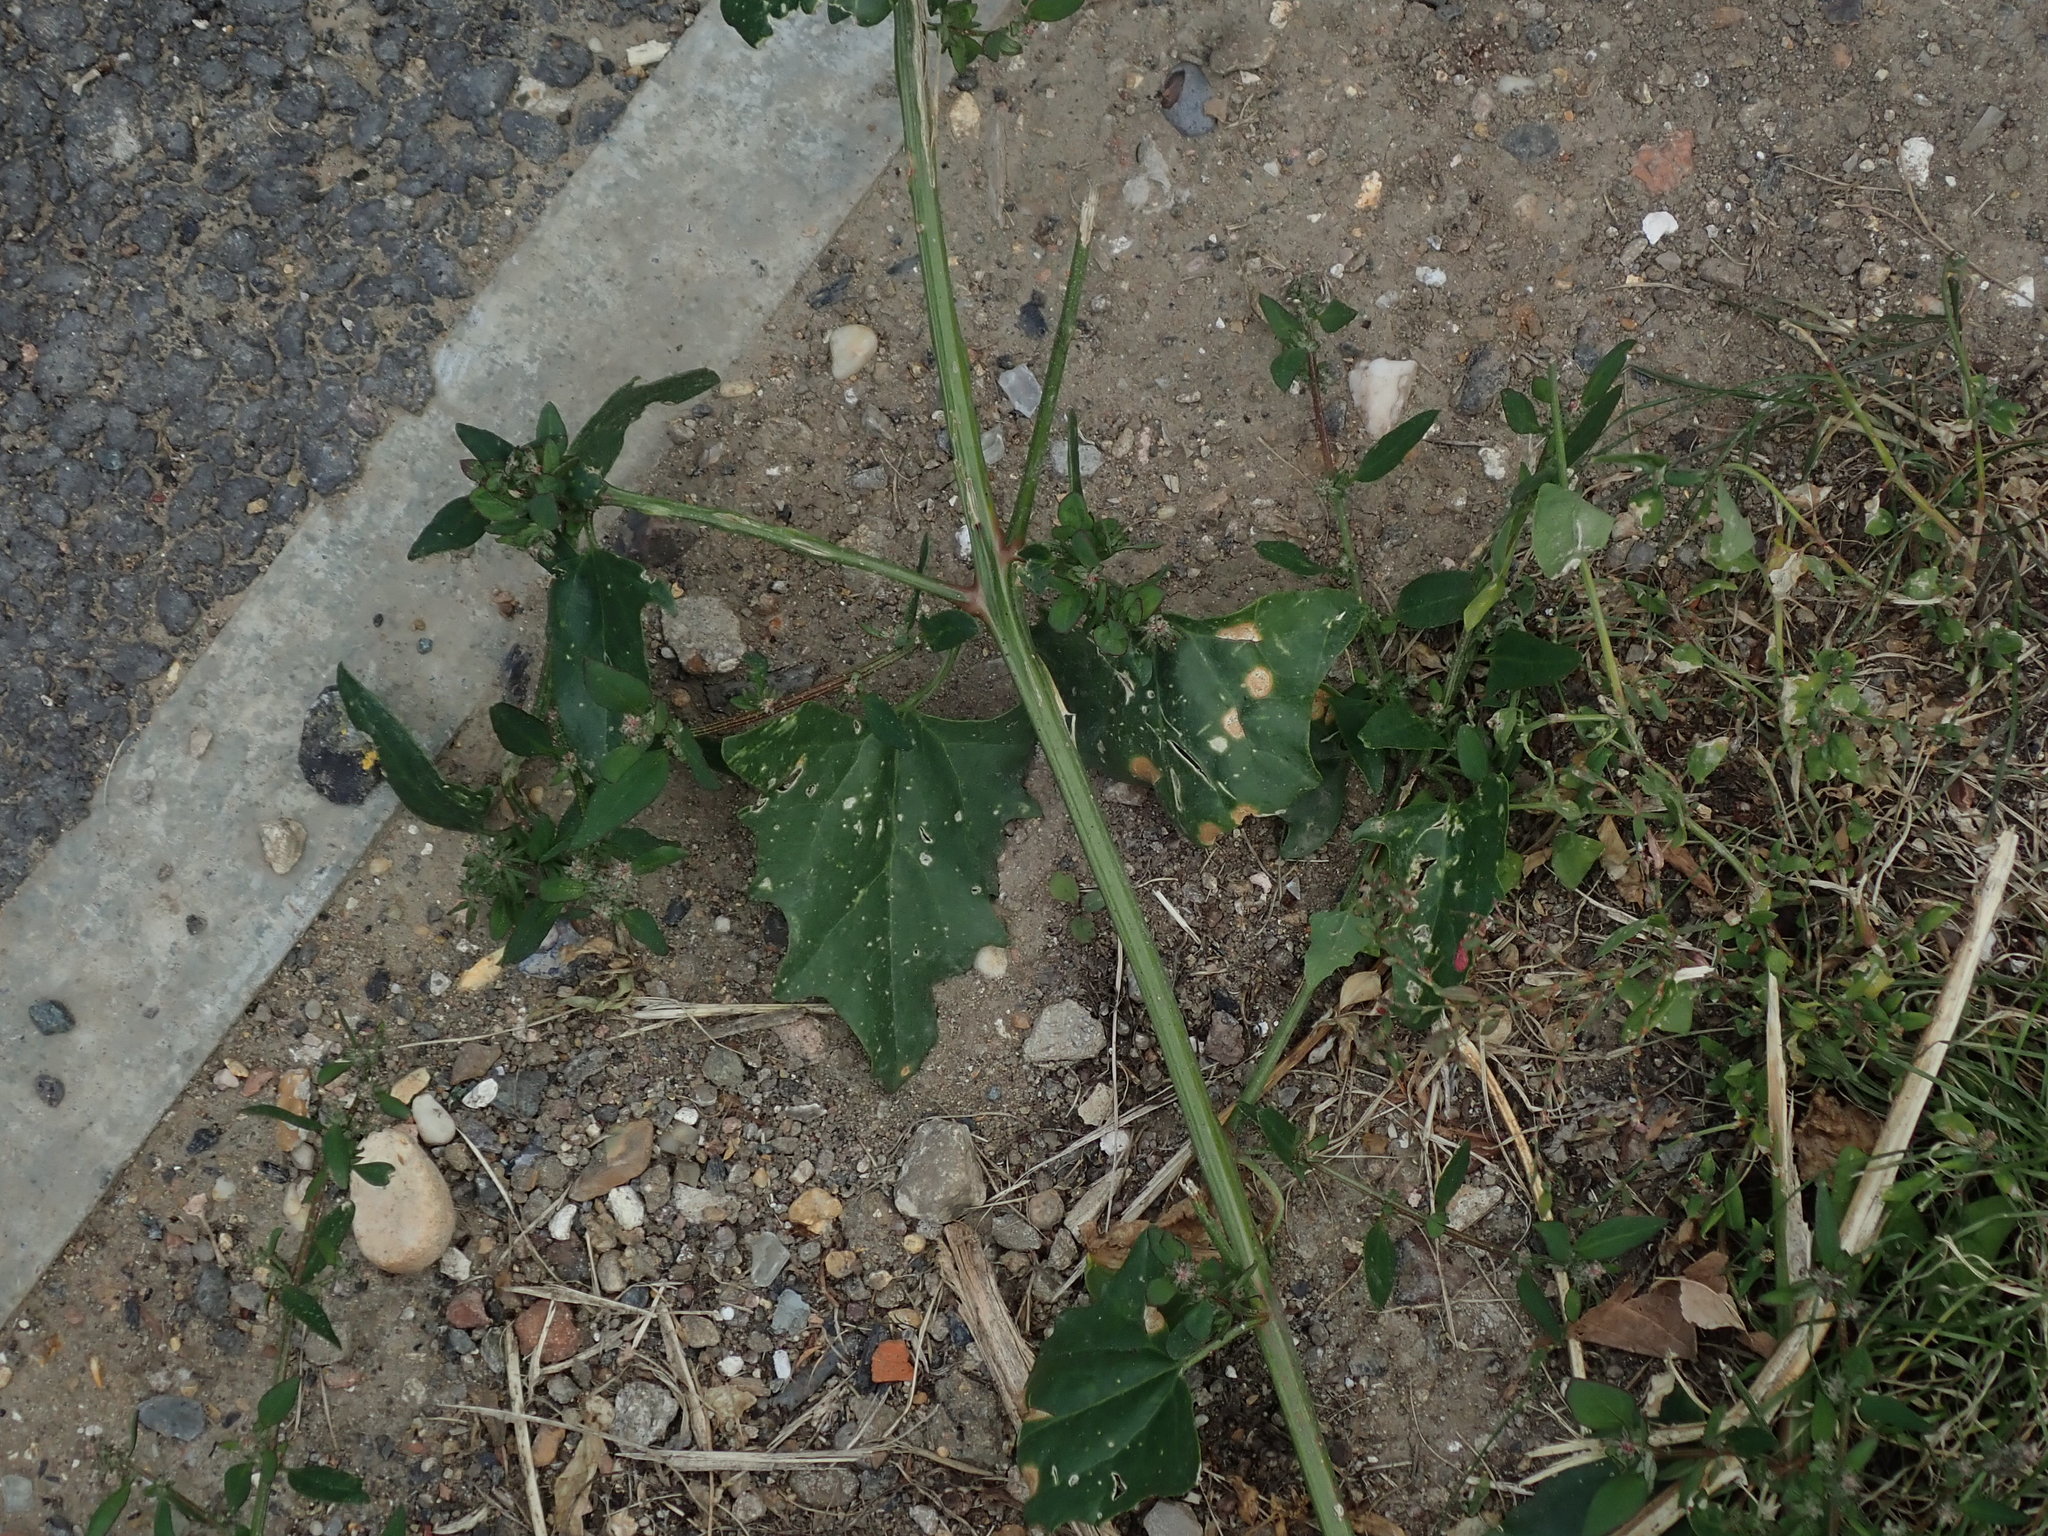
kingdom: Plantae
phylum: Tracheophyta
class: Magnoliopsida
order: Caryophyllales
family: Amaranthaceae
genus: Atriplex
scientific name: Atriplex prostrata
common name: Spear-leaved orache
